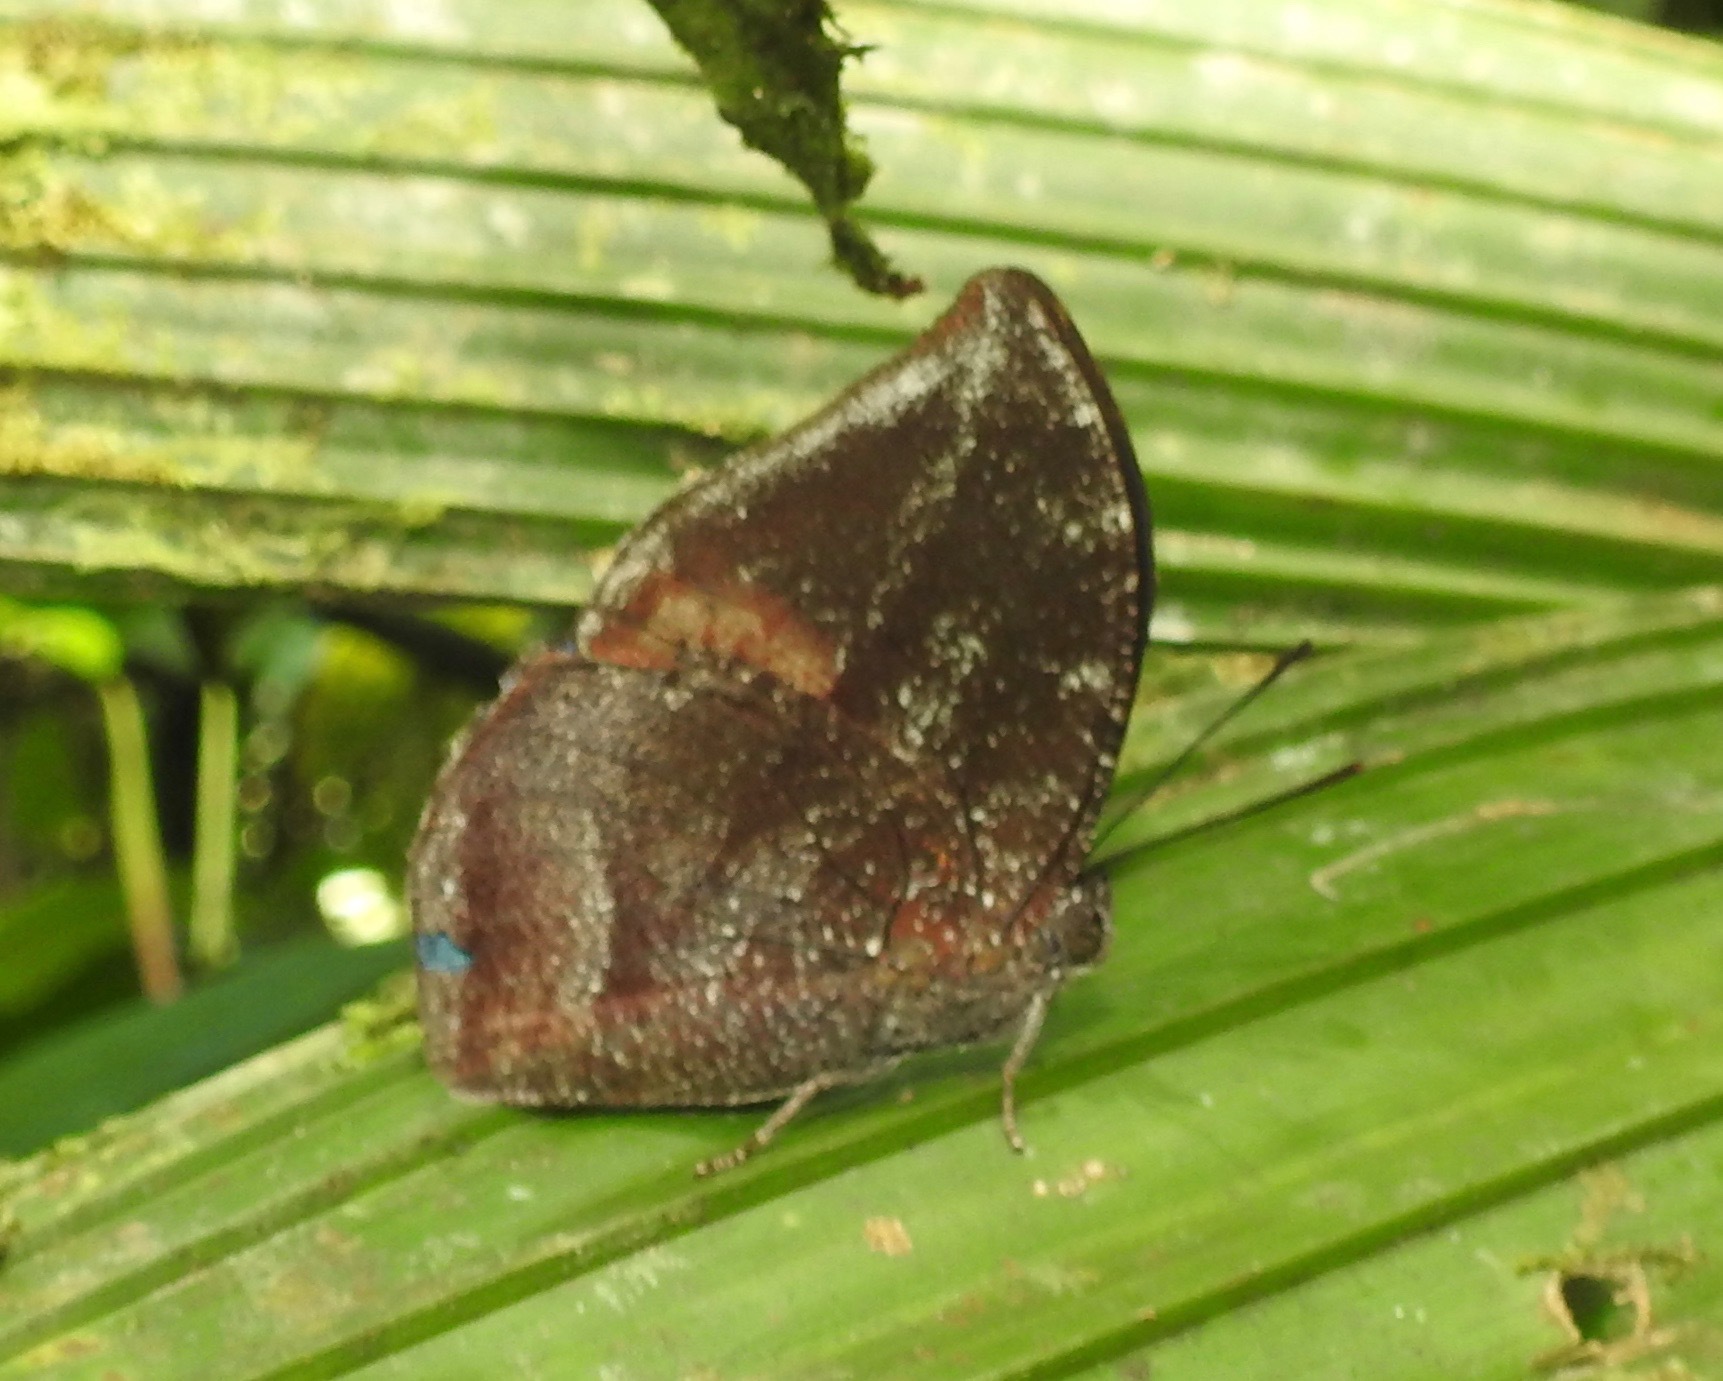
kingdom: Animalia
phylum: Arthropoda
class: Insecta
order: Lepidoptera
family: Nymphalidae
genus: Memphis
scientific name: Memphis cleomestra
